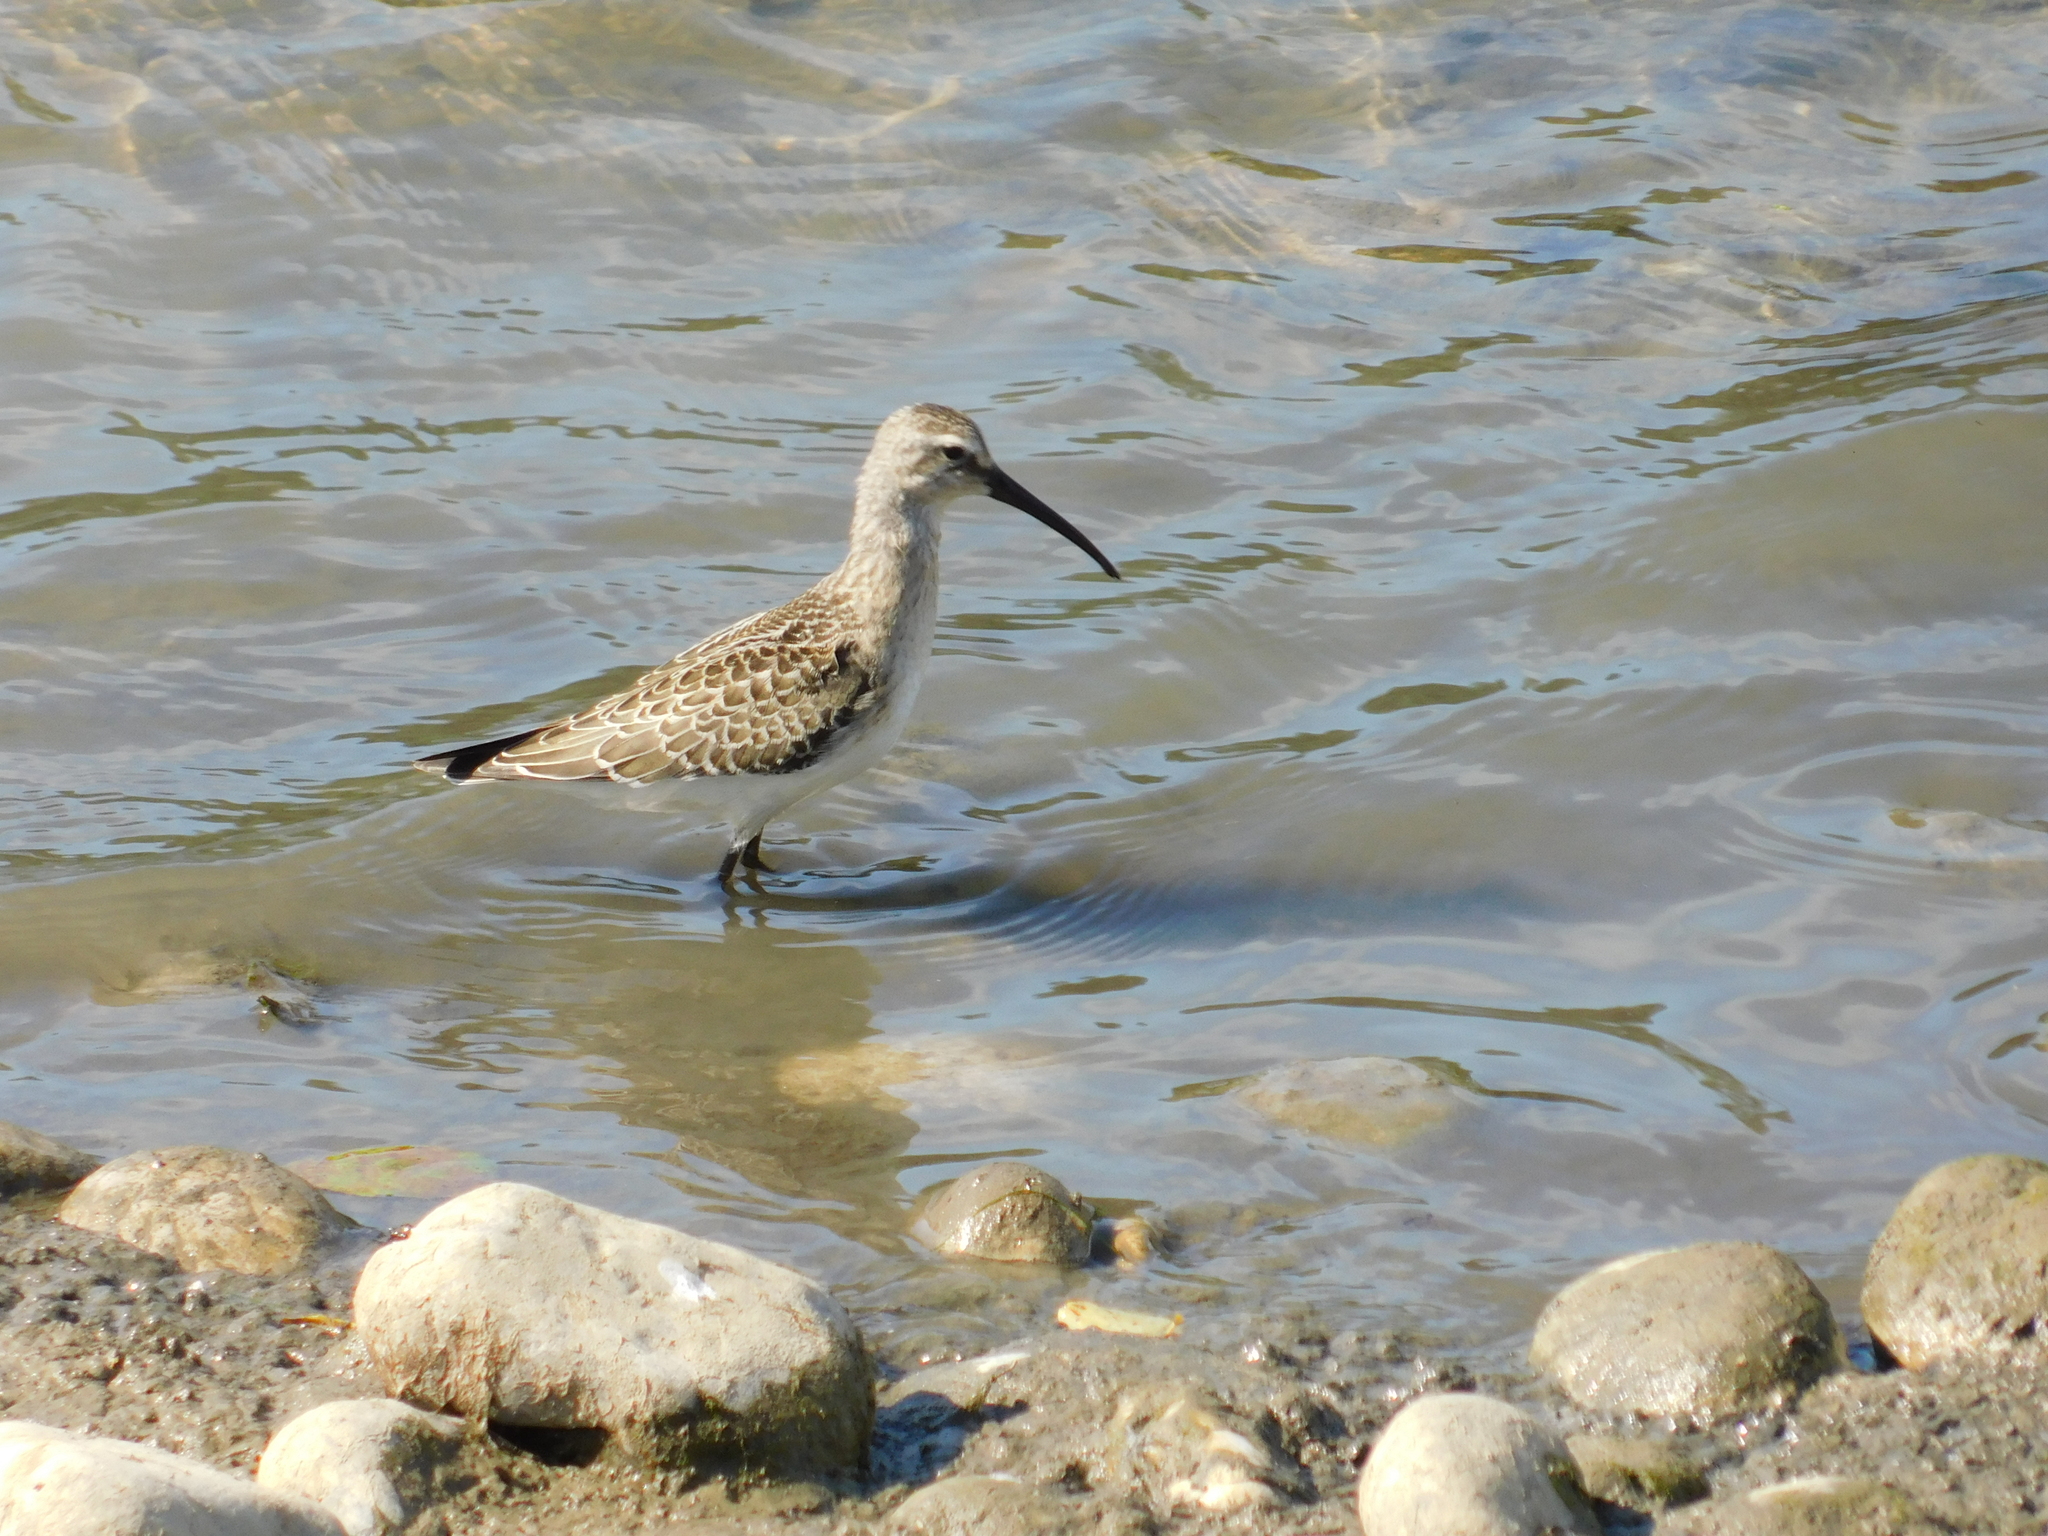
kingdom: Animalia
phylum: Chordata
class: Aves
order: Charadriiformes
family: Scolopacidae
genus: Calidris
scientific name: Calidris ferruginea
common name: Curlew sandpiper
